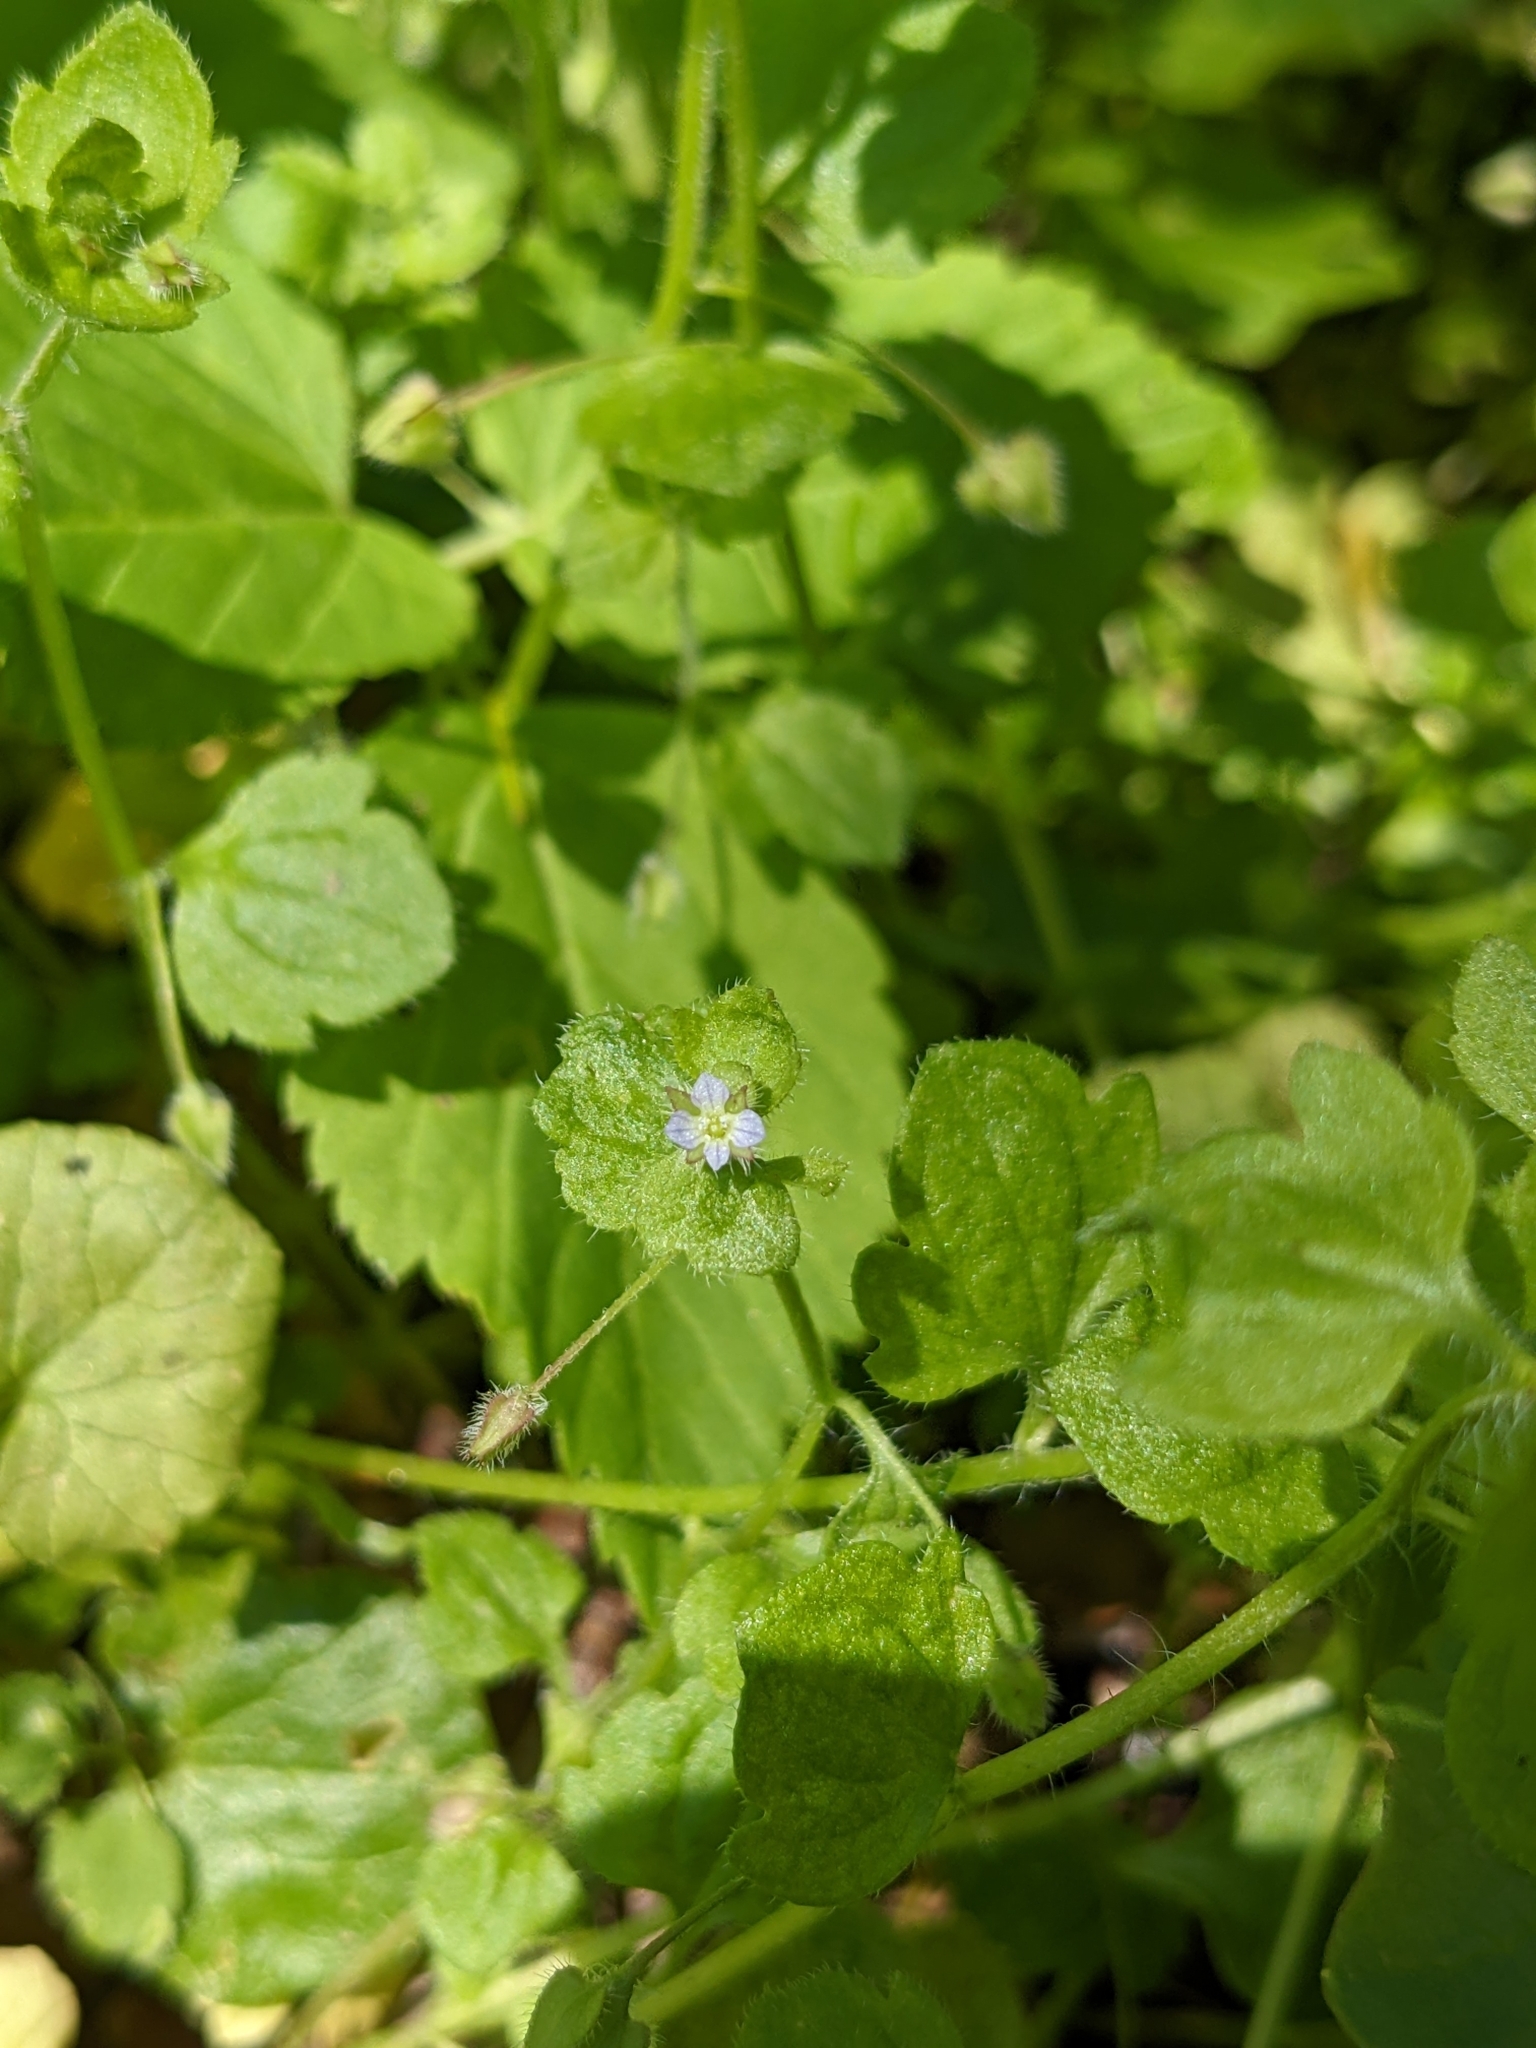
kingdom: Plantae
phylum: Tracheophyta
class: Magnoliopsida
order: Lamiales
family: Plantaginaceae
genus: Veronica
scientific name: Veronica sublobata
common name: False ivy-leaved speedwell
